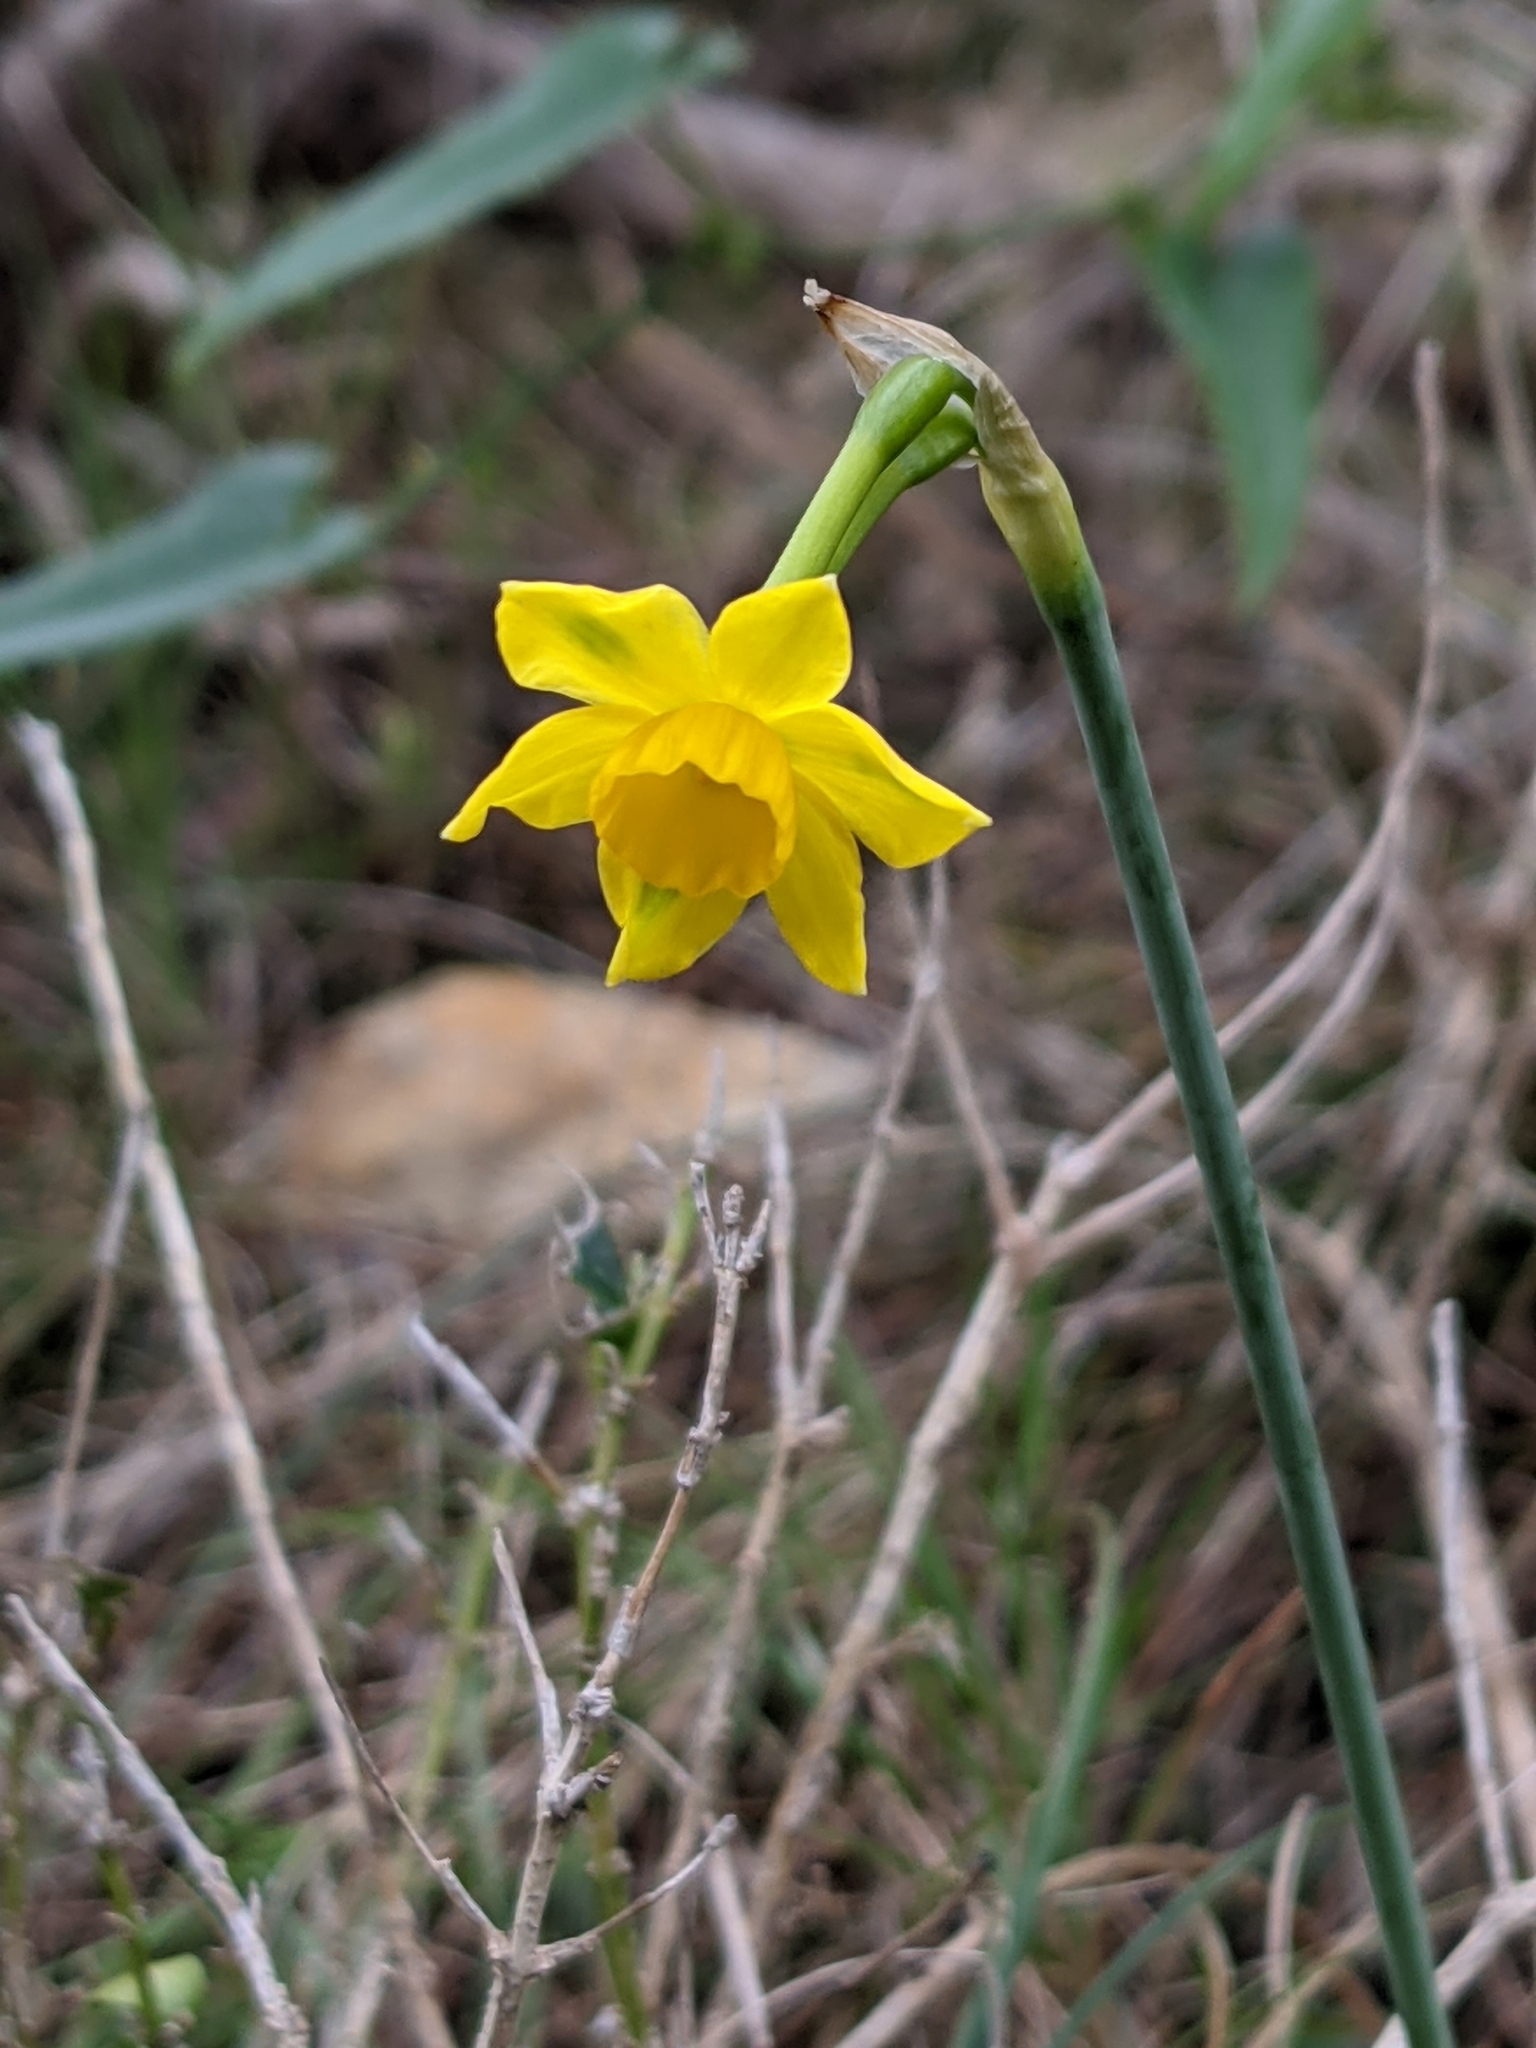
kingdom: Plantae
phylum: Tracheophyta
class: Liliopsida
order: Asparagales
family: Amaryllidaceae
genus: Narcissus
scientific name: Narcissus assoanus
